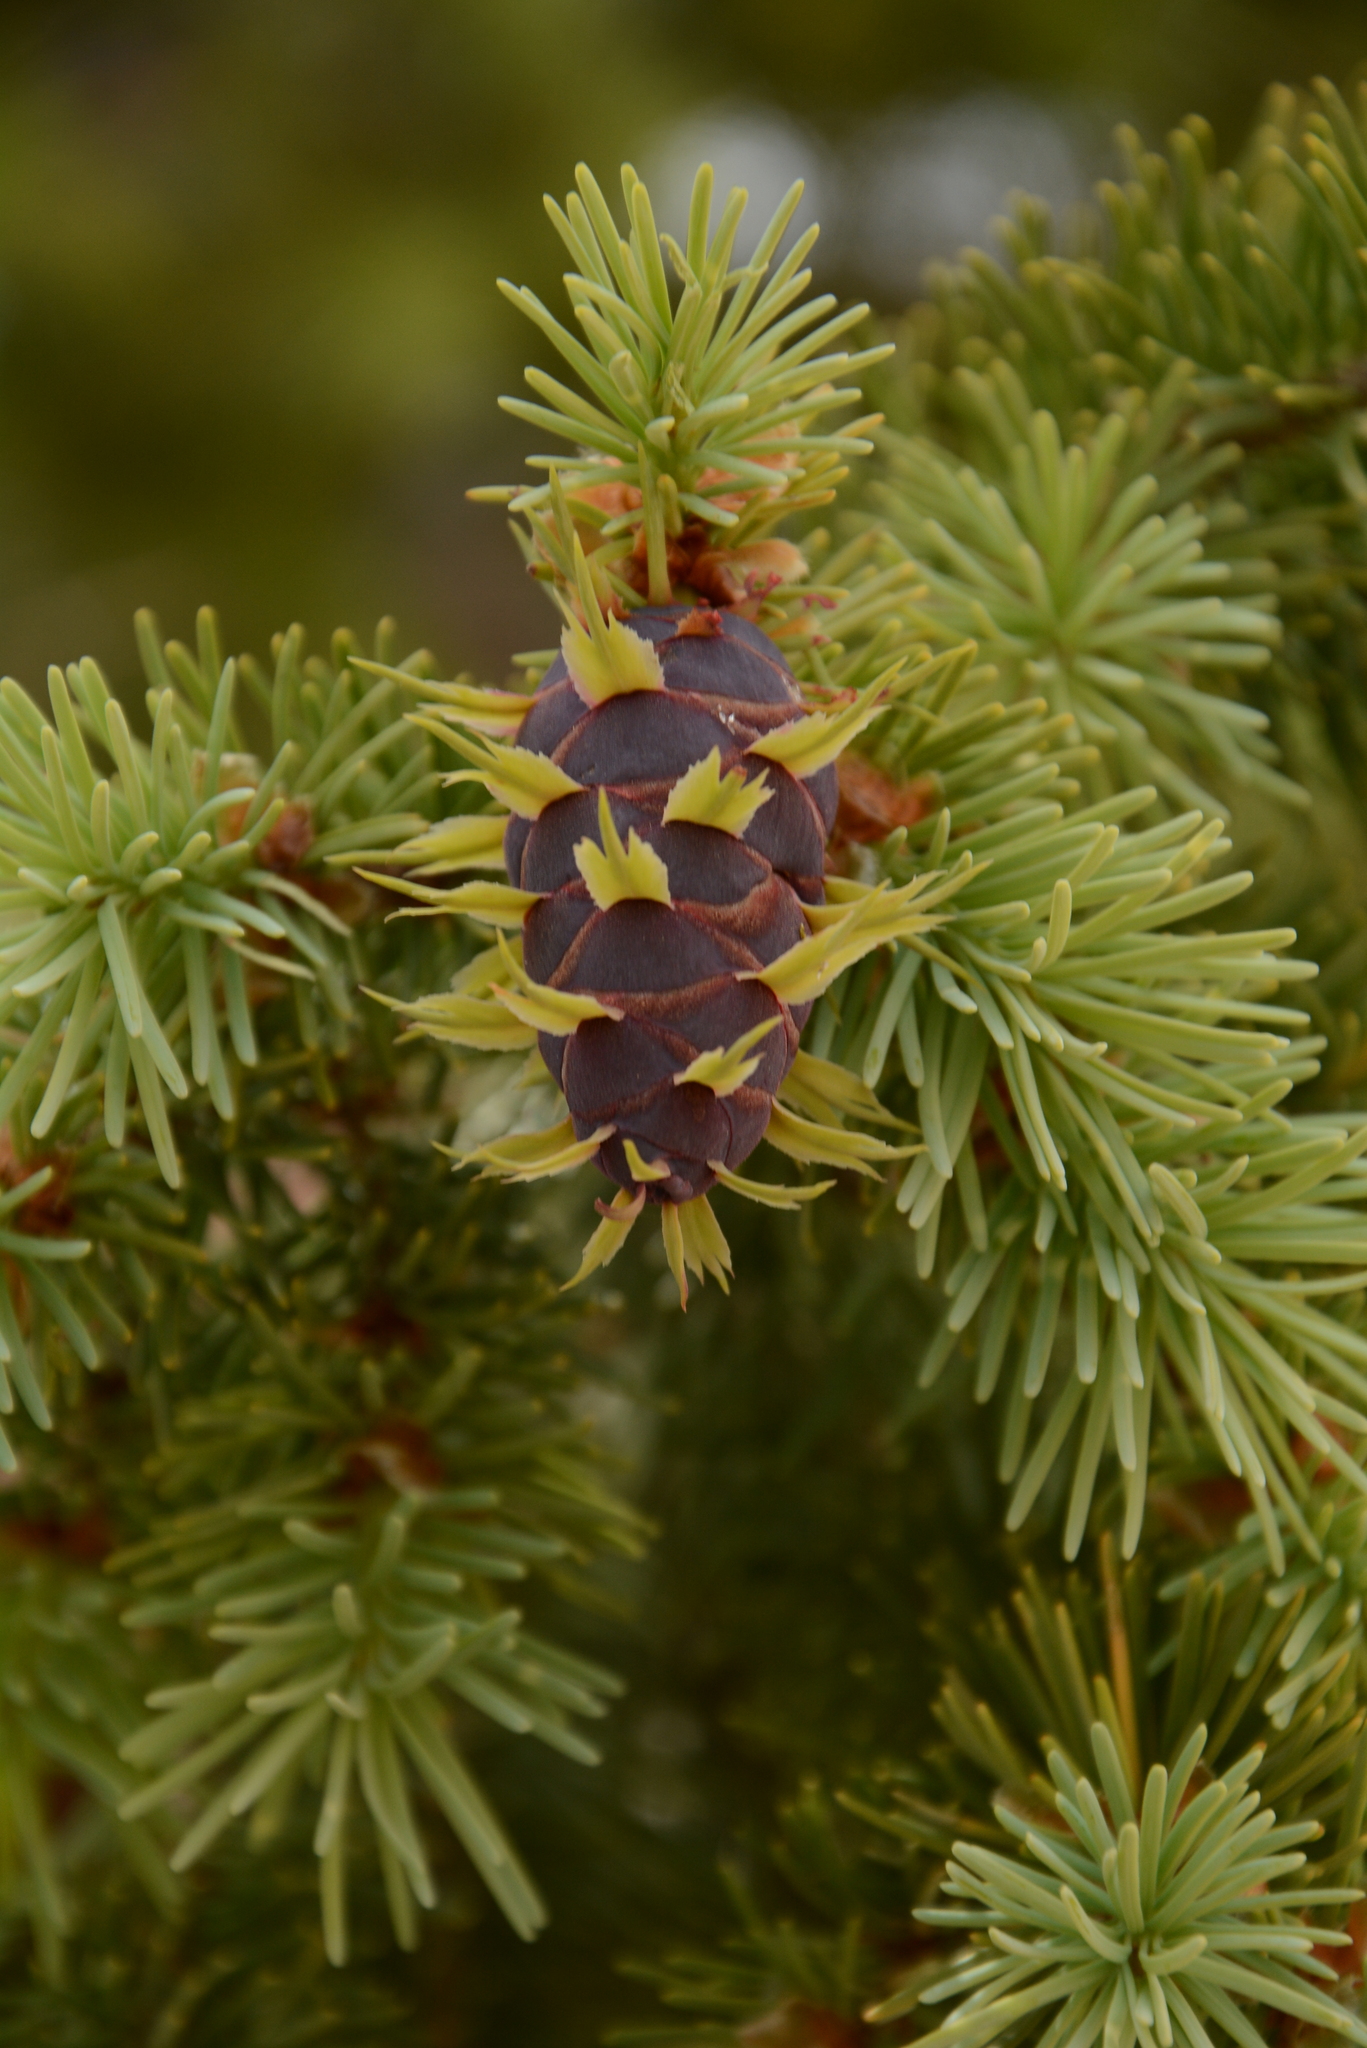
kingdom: Plantae
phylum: Tracheophyta
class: Pinopsida
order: Pinales
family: Pinaceae
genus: Pseudotsuga
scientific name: Pseudotsuga menziesii
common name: Douglas fir
